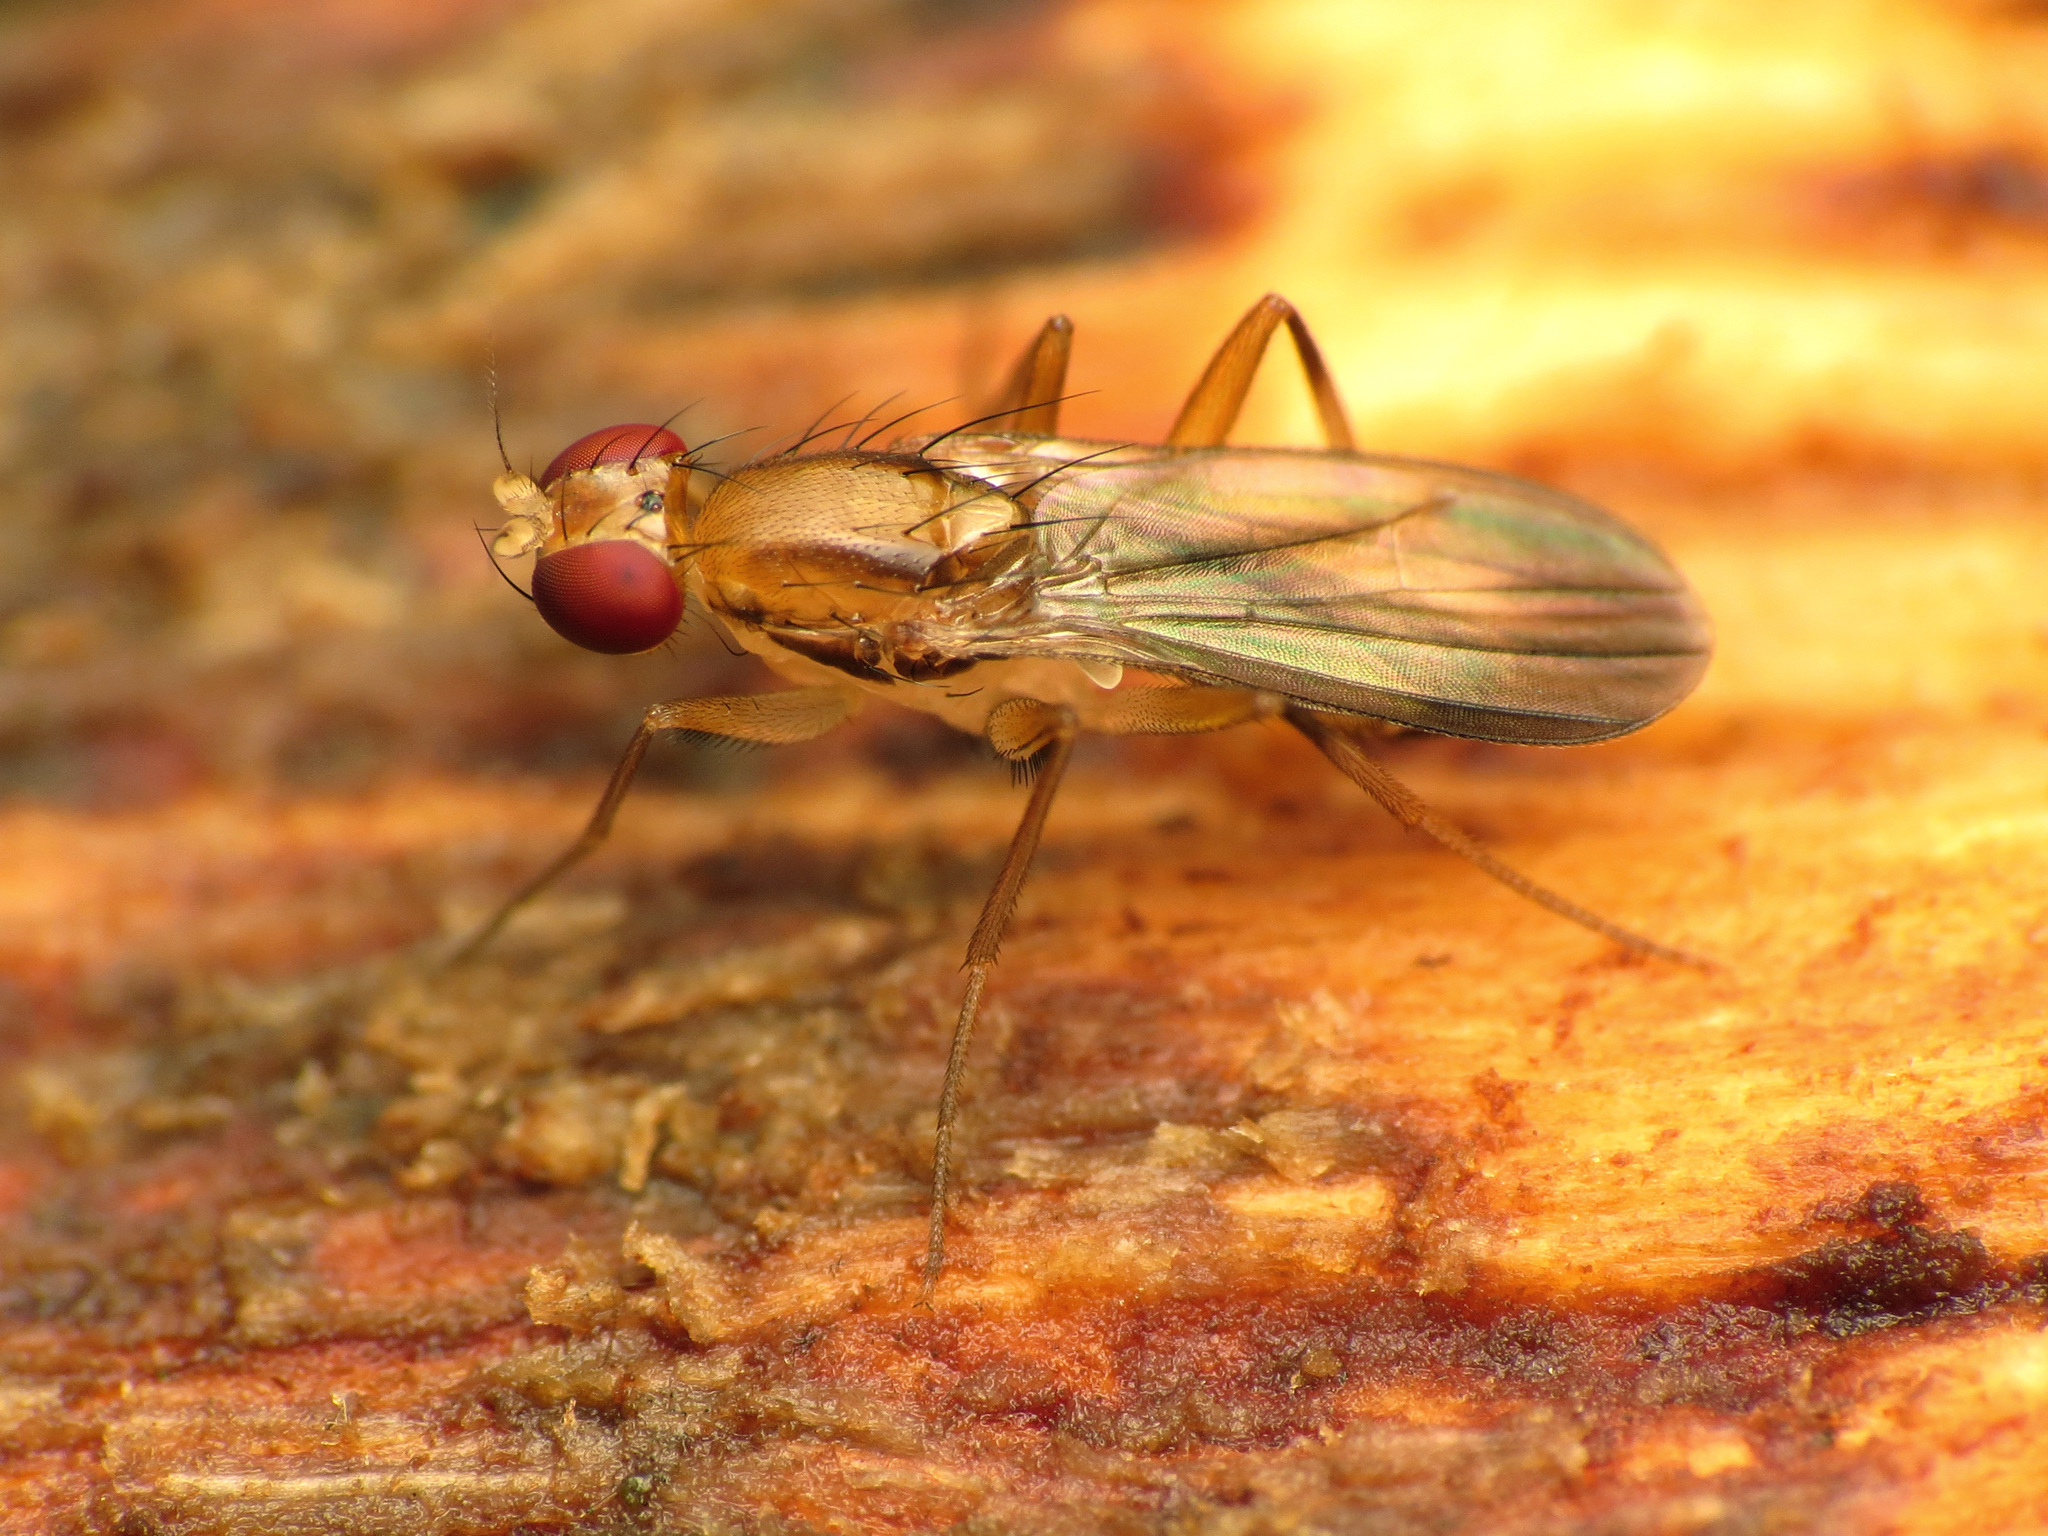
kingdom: Animalia
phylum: Arthropoda
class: Insecta
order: Diptera
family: Clusiidae
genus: Clusia
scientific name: Clusia lateralis
